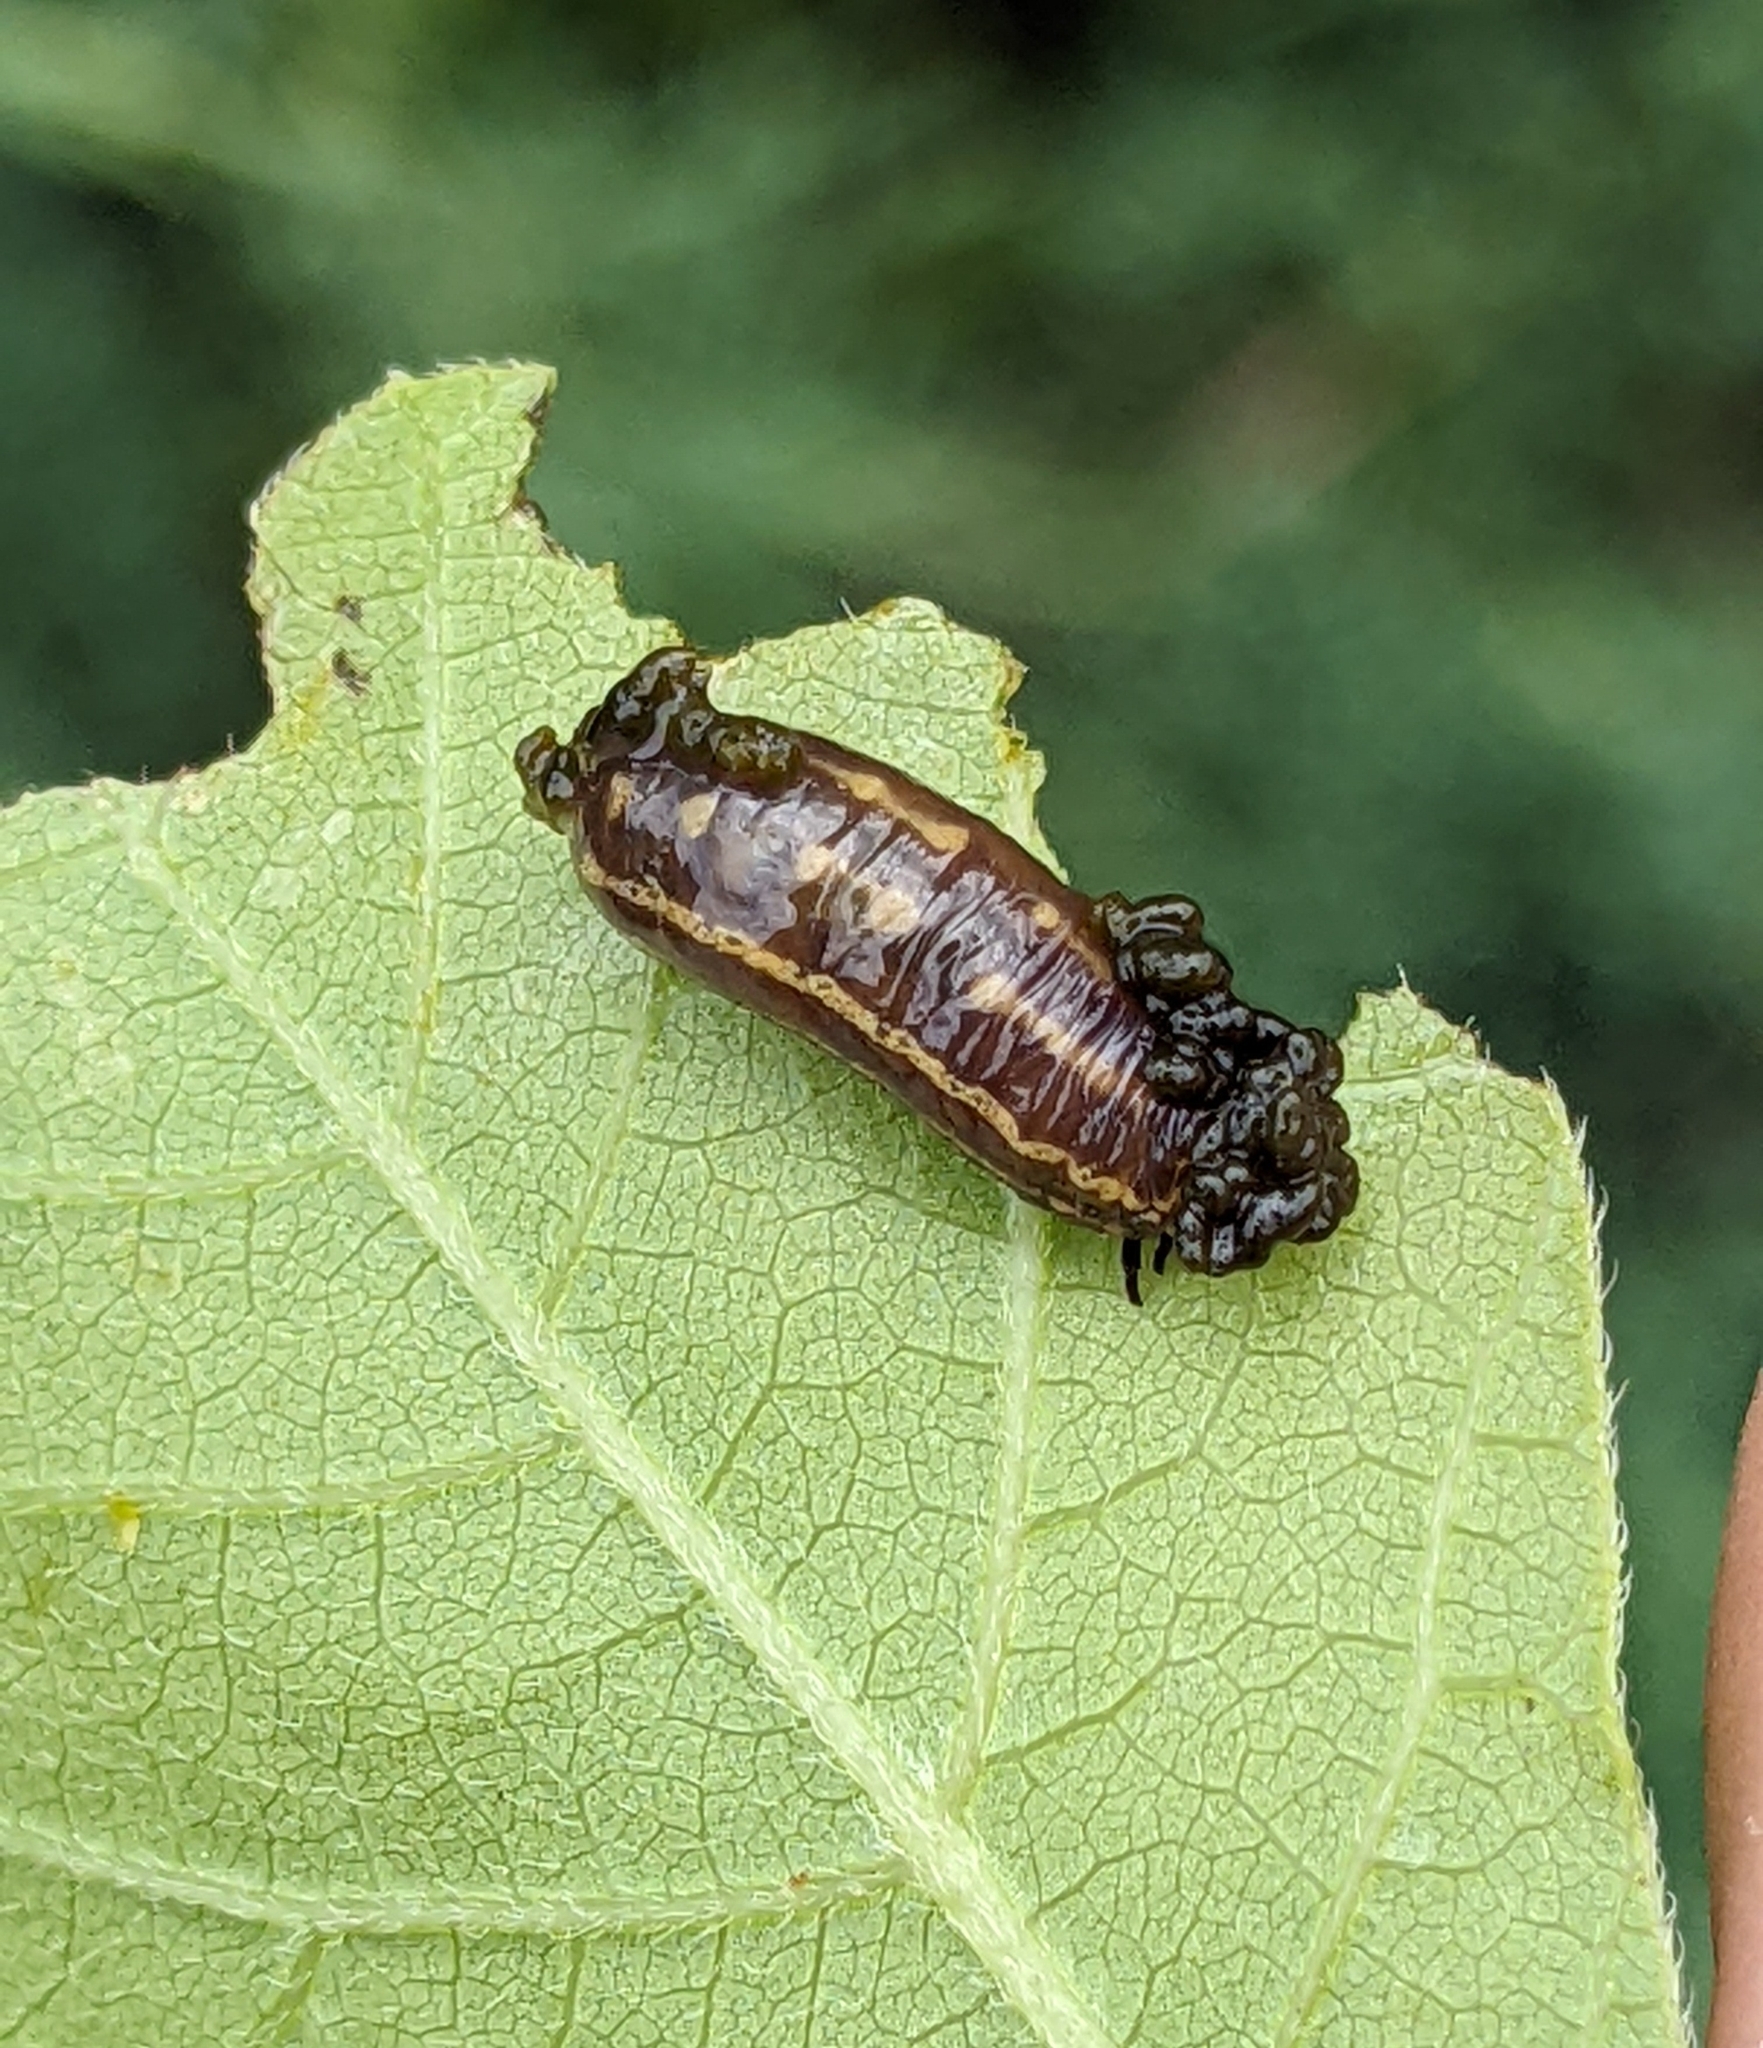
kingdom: Animalia
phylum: Arthropoda
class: Insecta
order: Coleoptera
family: Chrysomelidae
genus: Blepharida
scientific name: Blepharida rhois
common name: Sumac flea beetle
